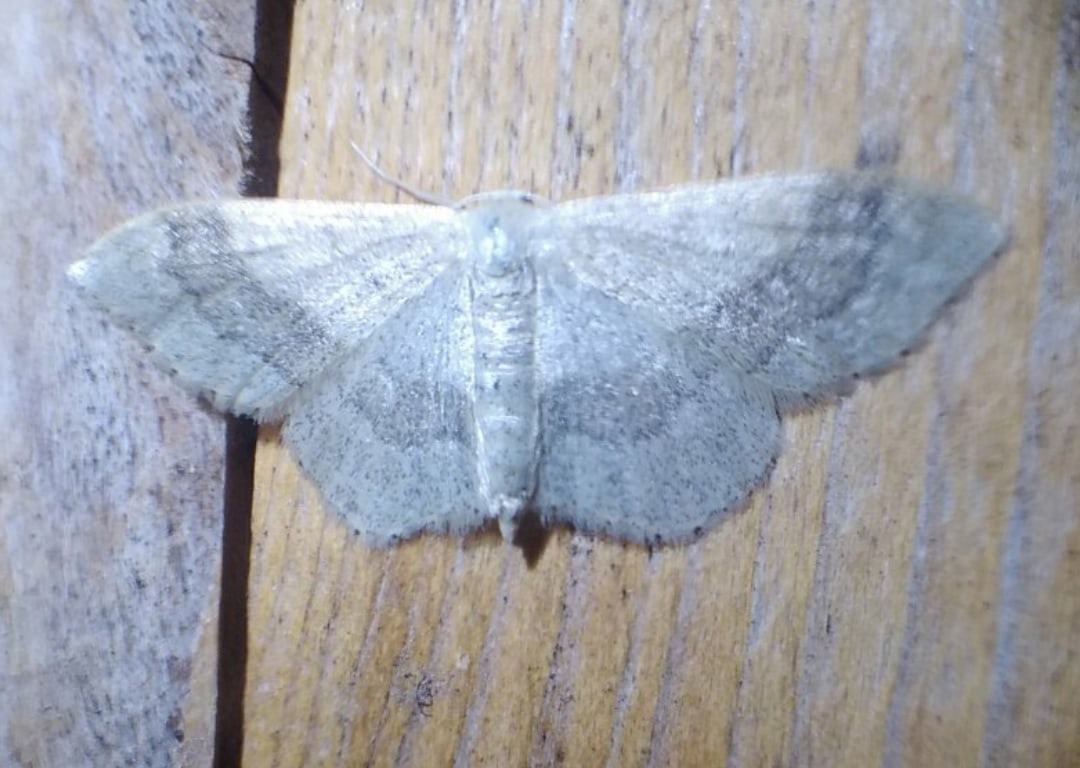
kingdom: Animalia
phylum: Arthropoda
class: Insecta
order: Lepidoptera
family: Geometridae
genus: Idaea
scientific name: Idaea aversata
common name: Riband wave
